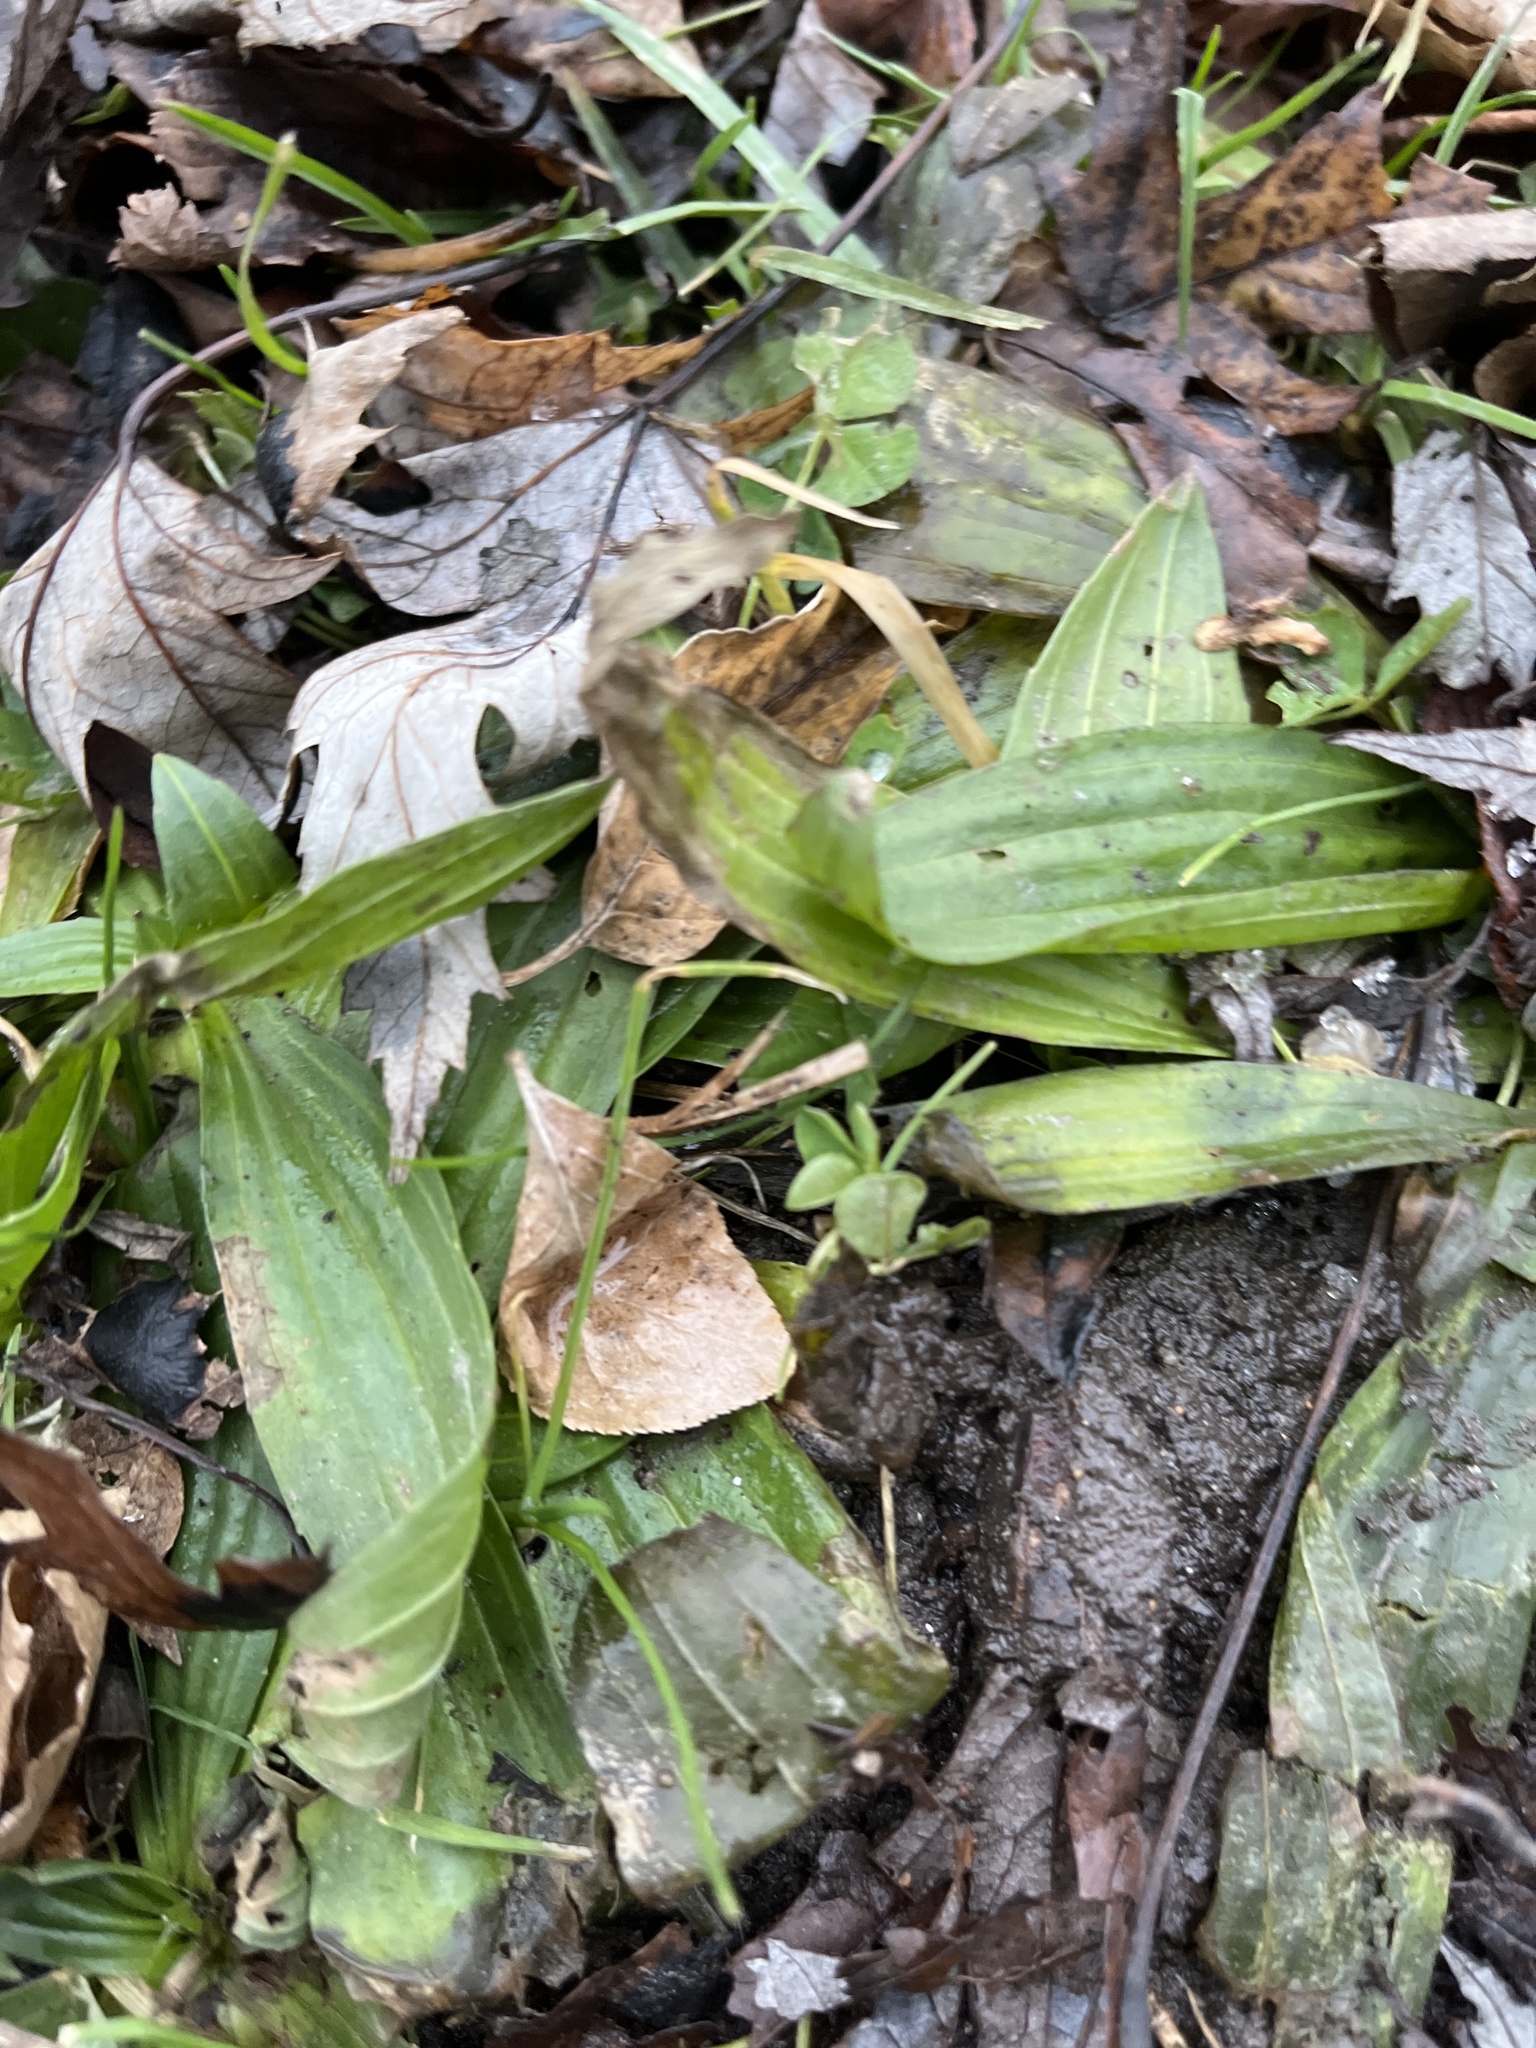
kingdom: Plantae
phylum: Tracheophyta
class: Magnoliopsida
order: Lamiales
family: Plantaginaceae
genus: Plantago
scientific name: Plantago lanceolata
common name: Ribwort plantain
